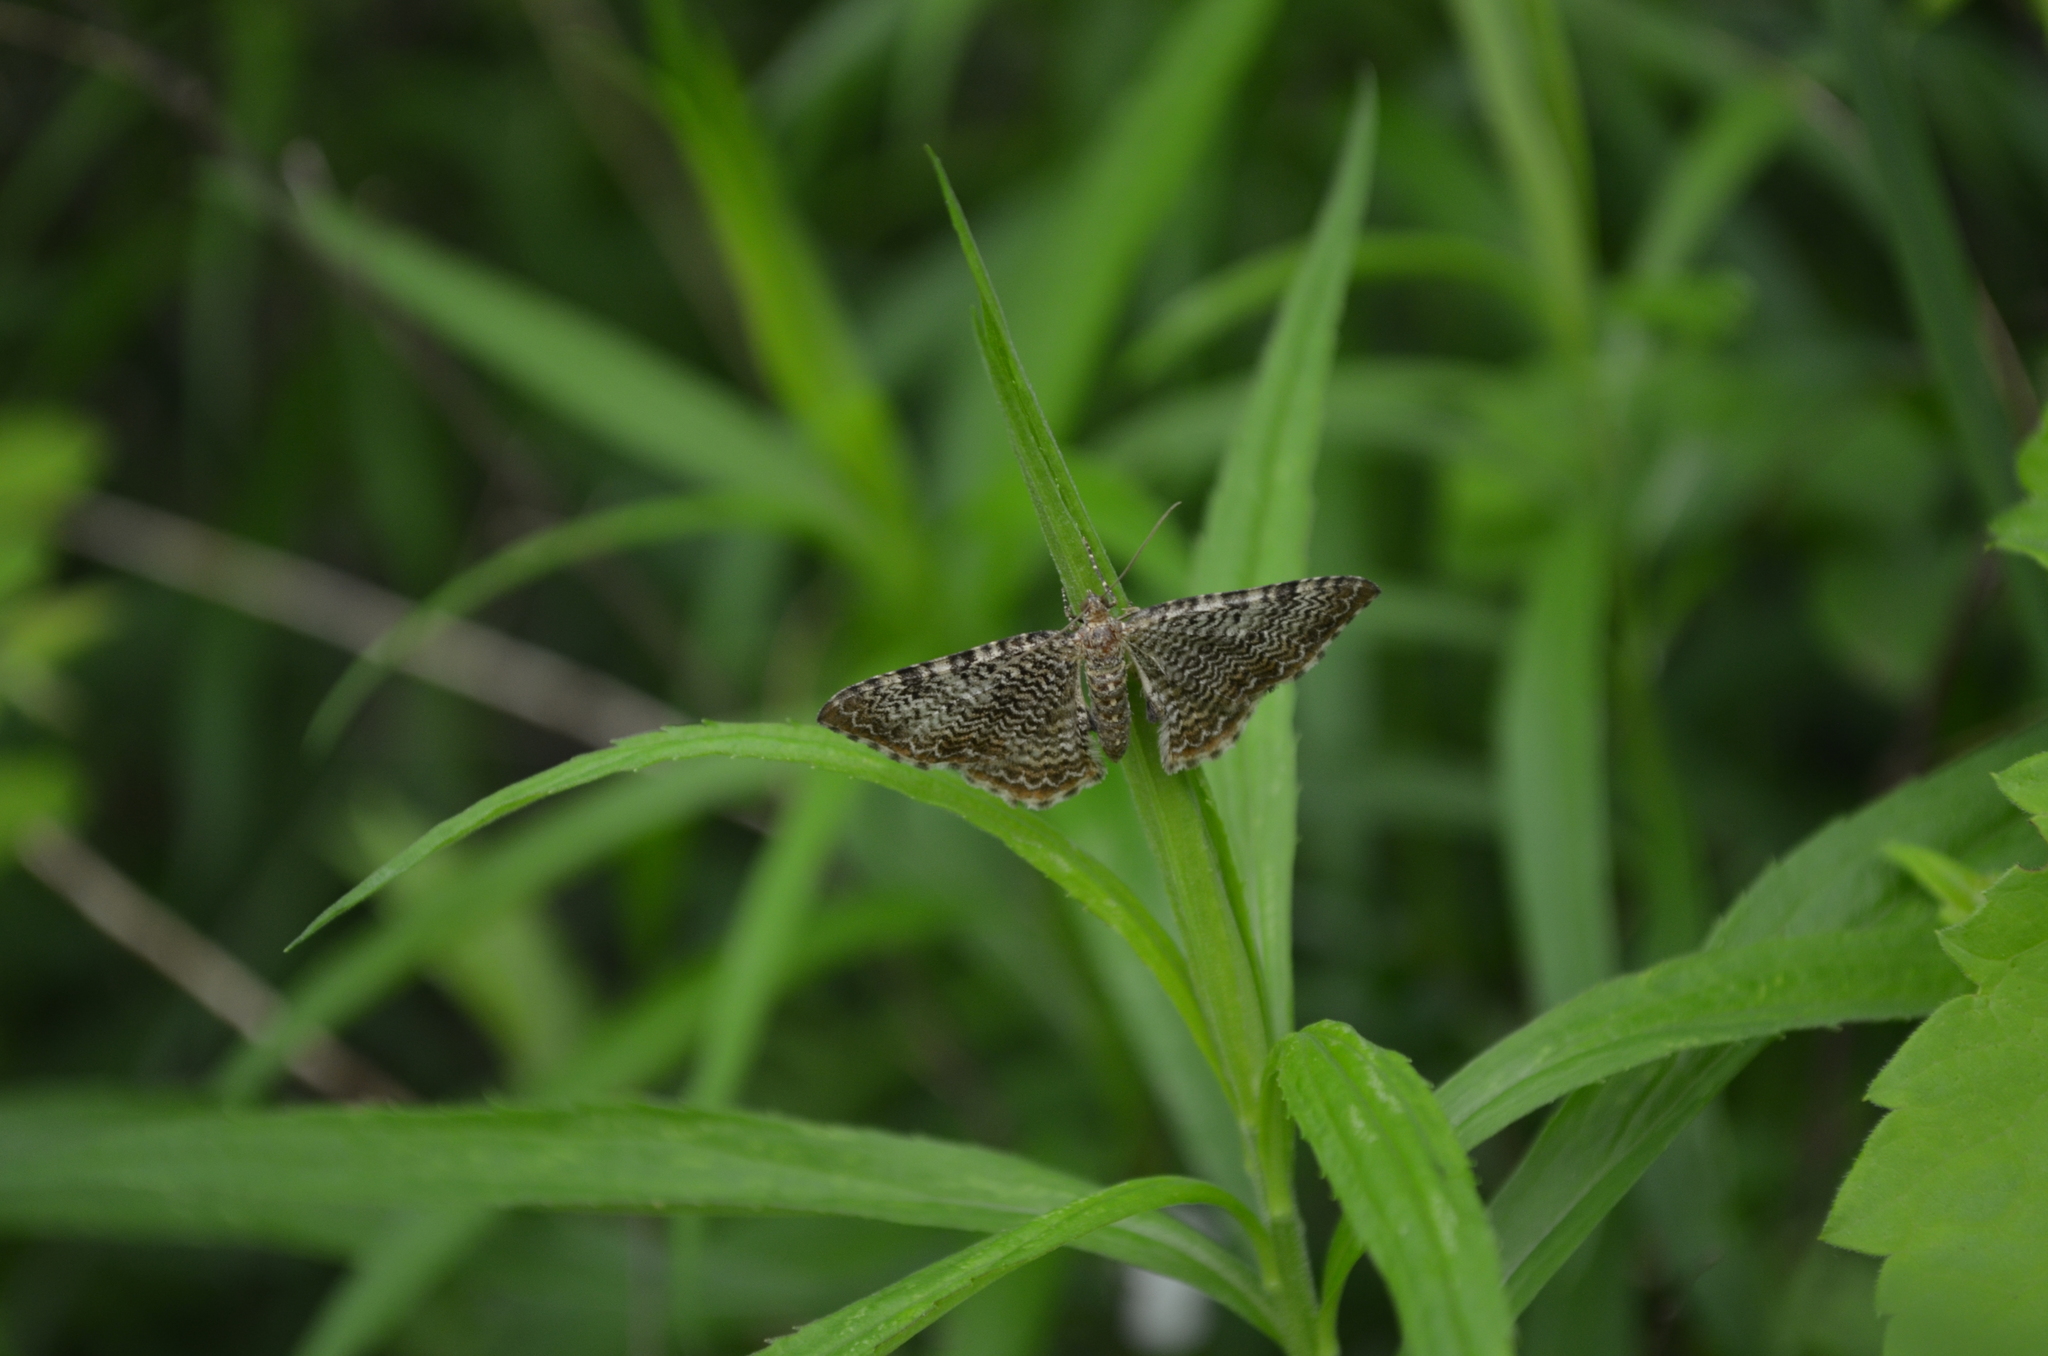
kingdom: Animalia
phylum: Arthropoda
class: Insecta
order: Lepidoptera
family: Geometridae
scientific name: Geometridae
